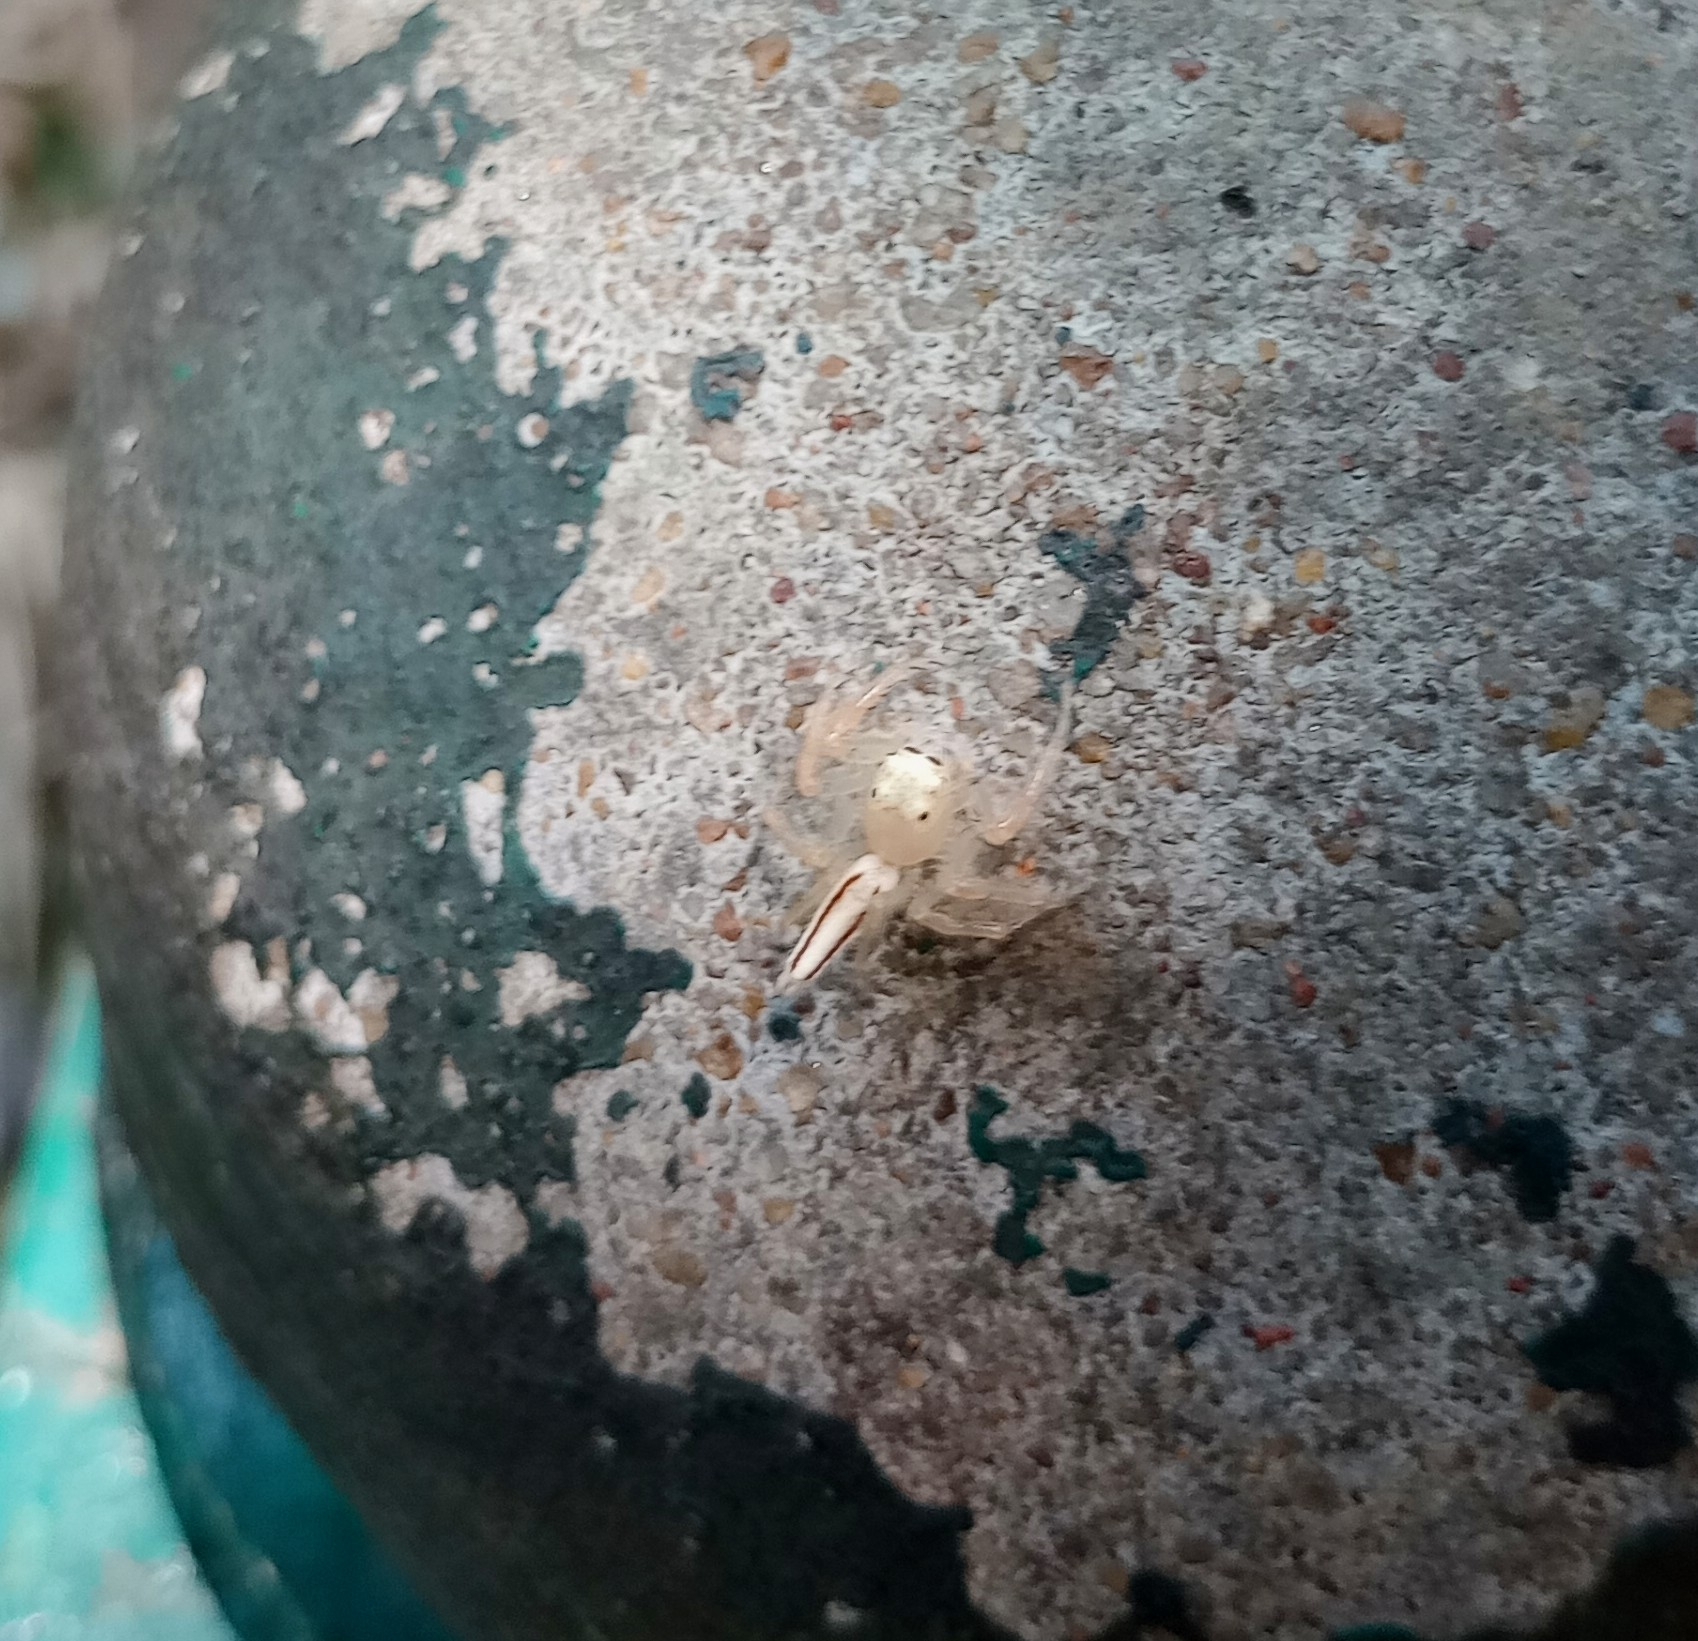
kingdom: Animalia
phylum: Arthropoda
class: Arachnida
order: Araneae
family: Salticidae
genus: Telamonia
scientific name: Telamonia dimidiata
